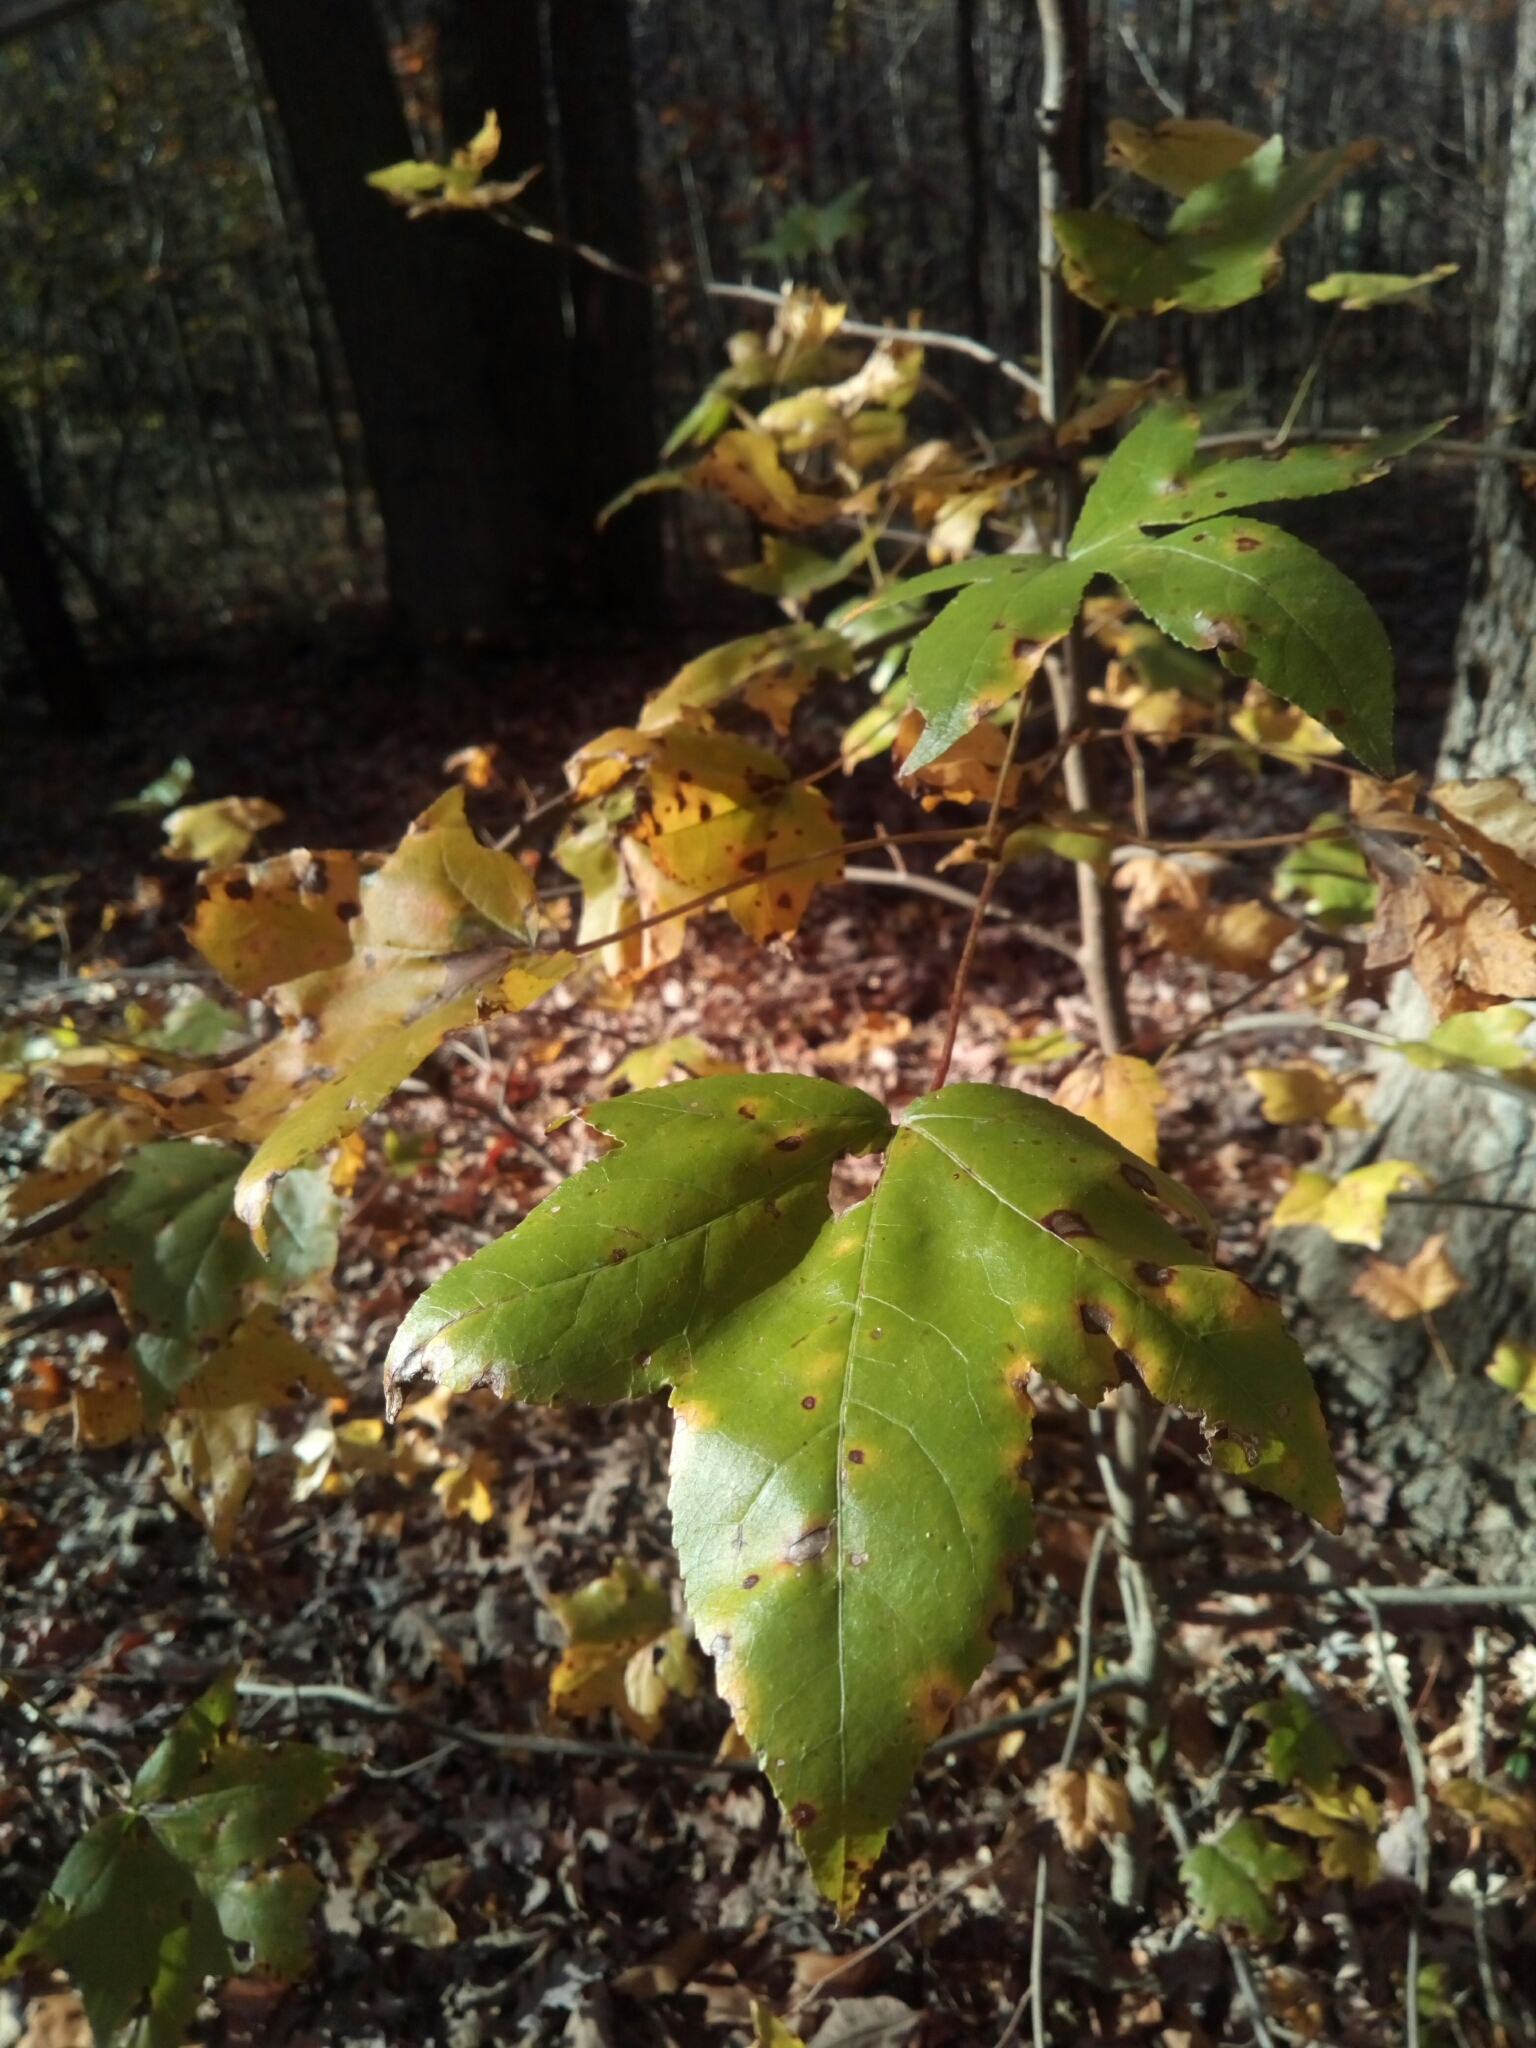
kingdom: Plantae
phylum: Tracheophyta
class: Magnoliopsida
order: Saxifragales
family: Altingiaceae
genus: Liquidambar
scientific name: Liquidambar styraciflua
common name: Sweet gum
